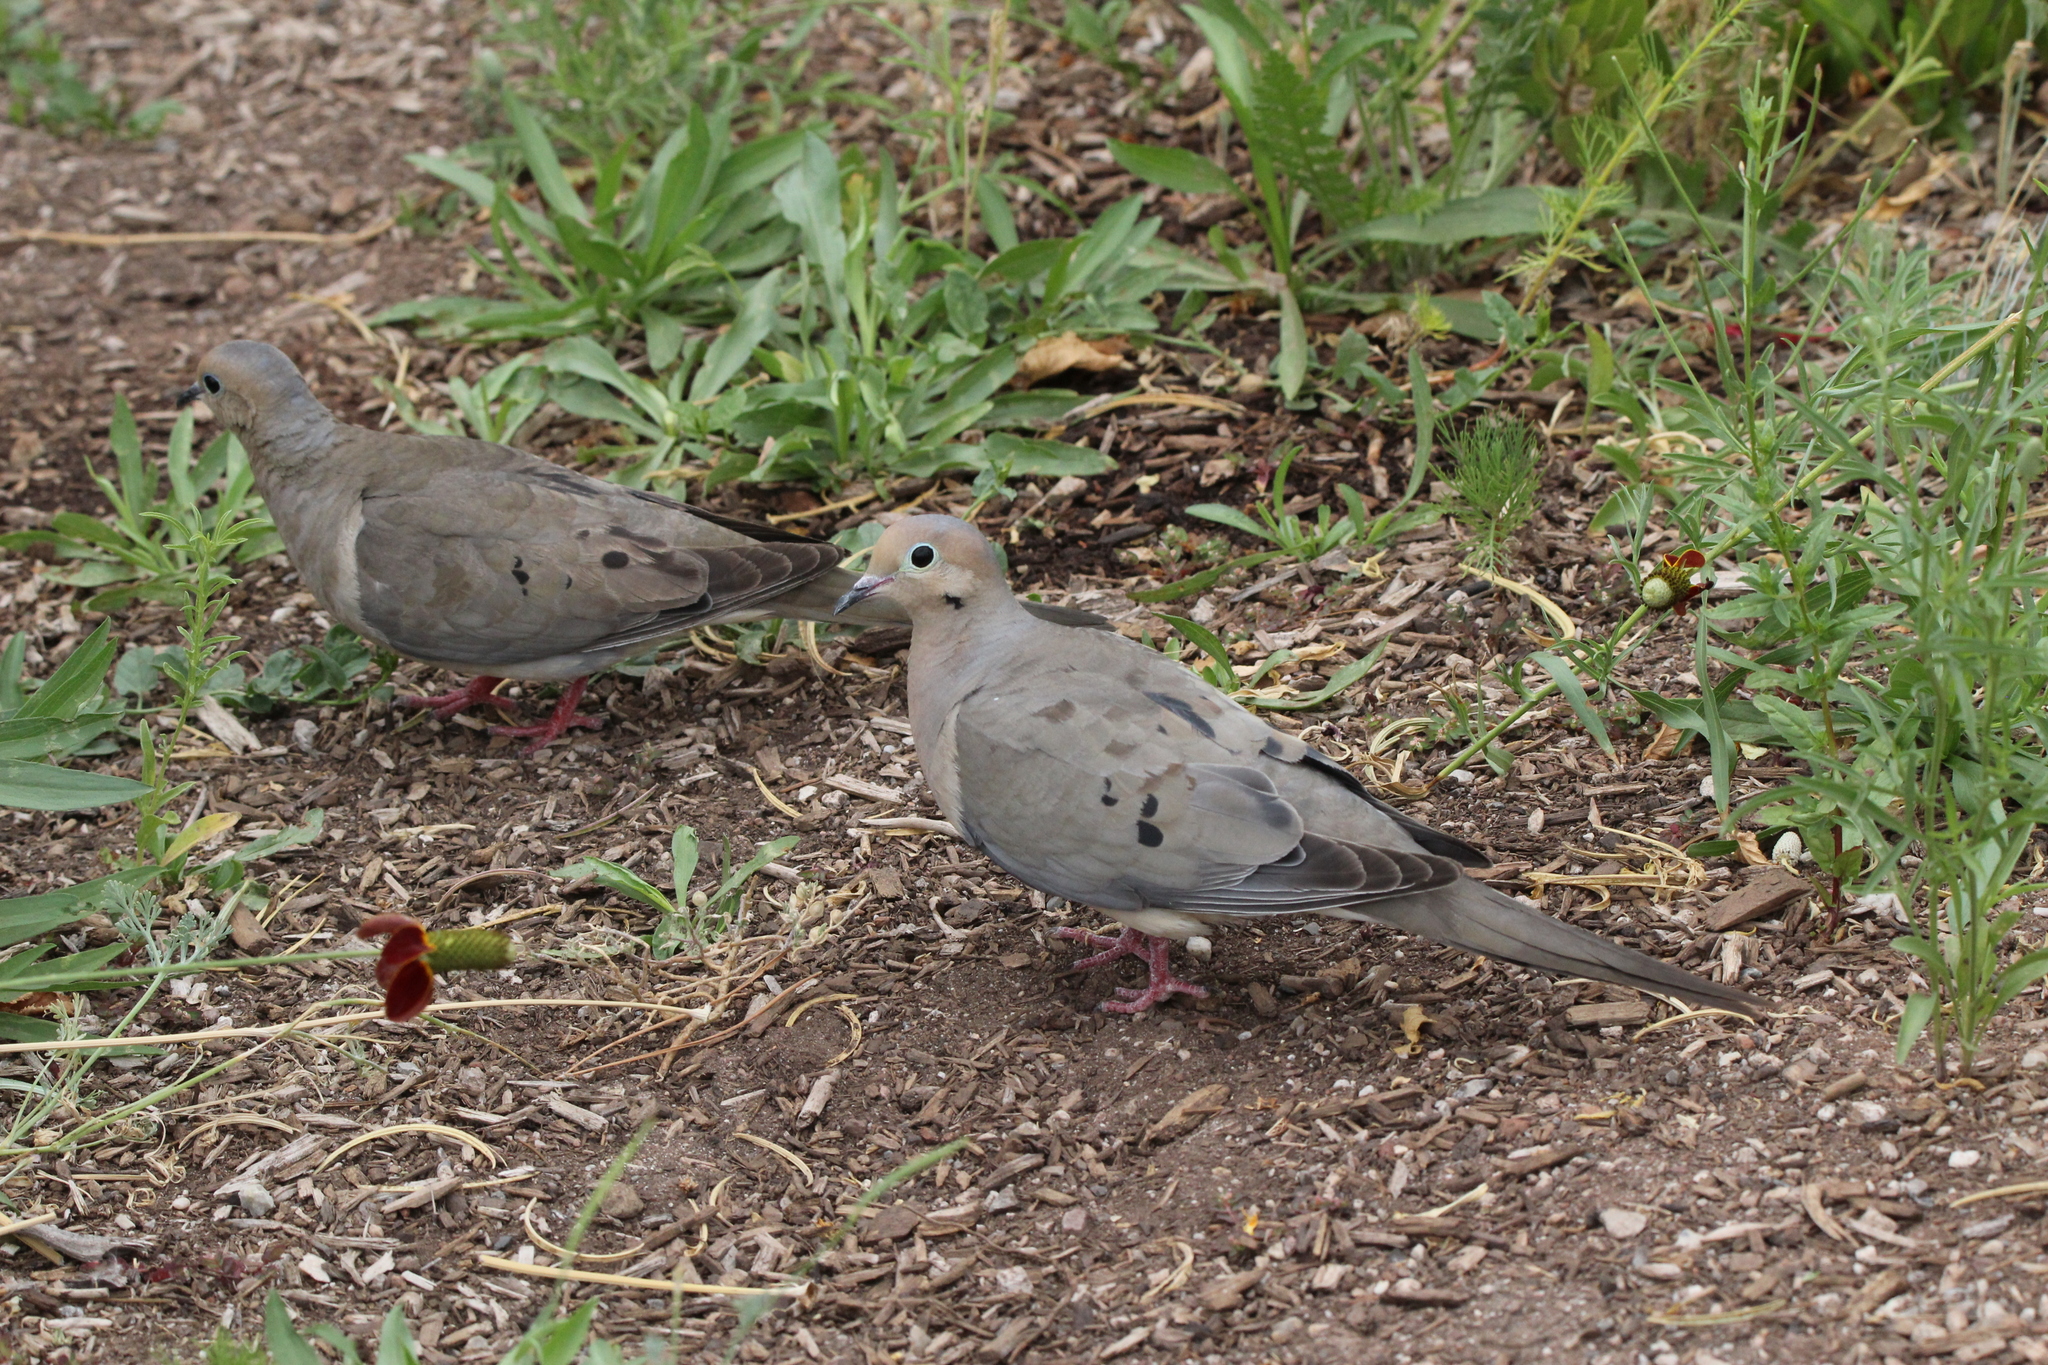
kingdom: Animalia
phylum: Chordata
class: Aves
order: Columbiformes
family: Columbidae
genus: Zenaida
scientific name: Zenaida macroura
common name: Mourning dove
